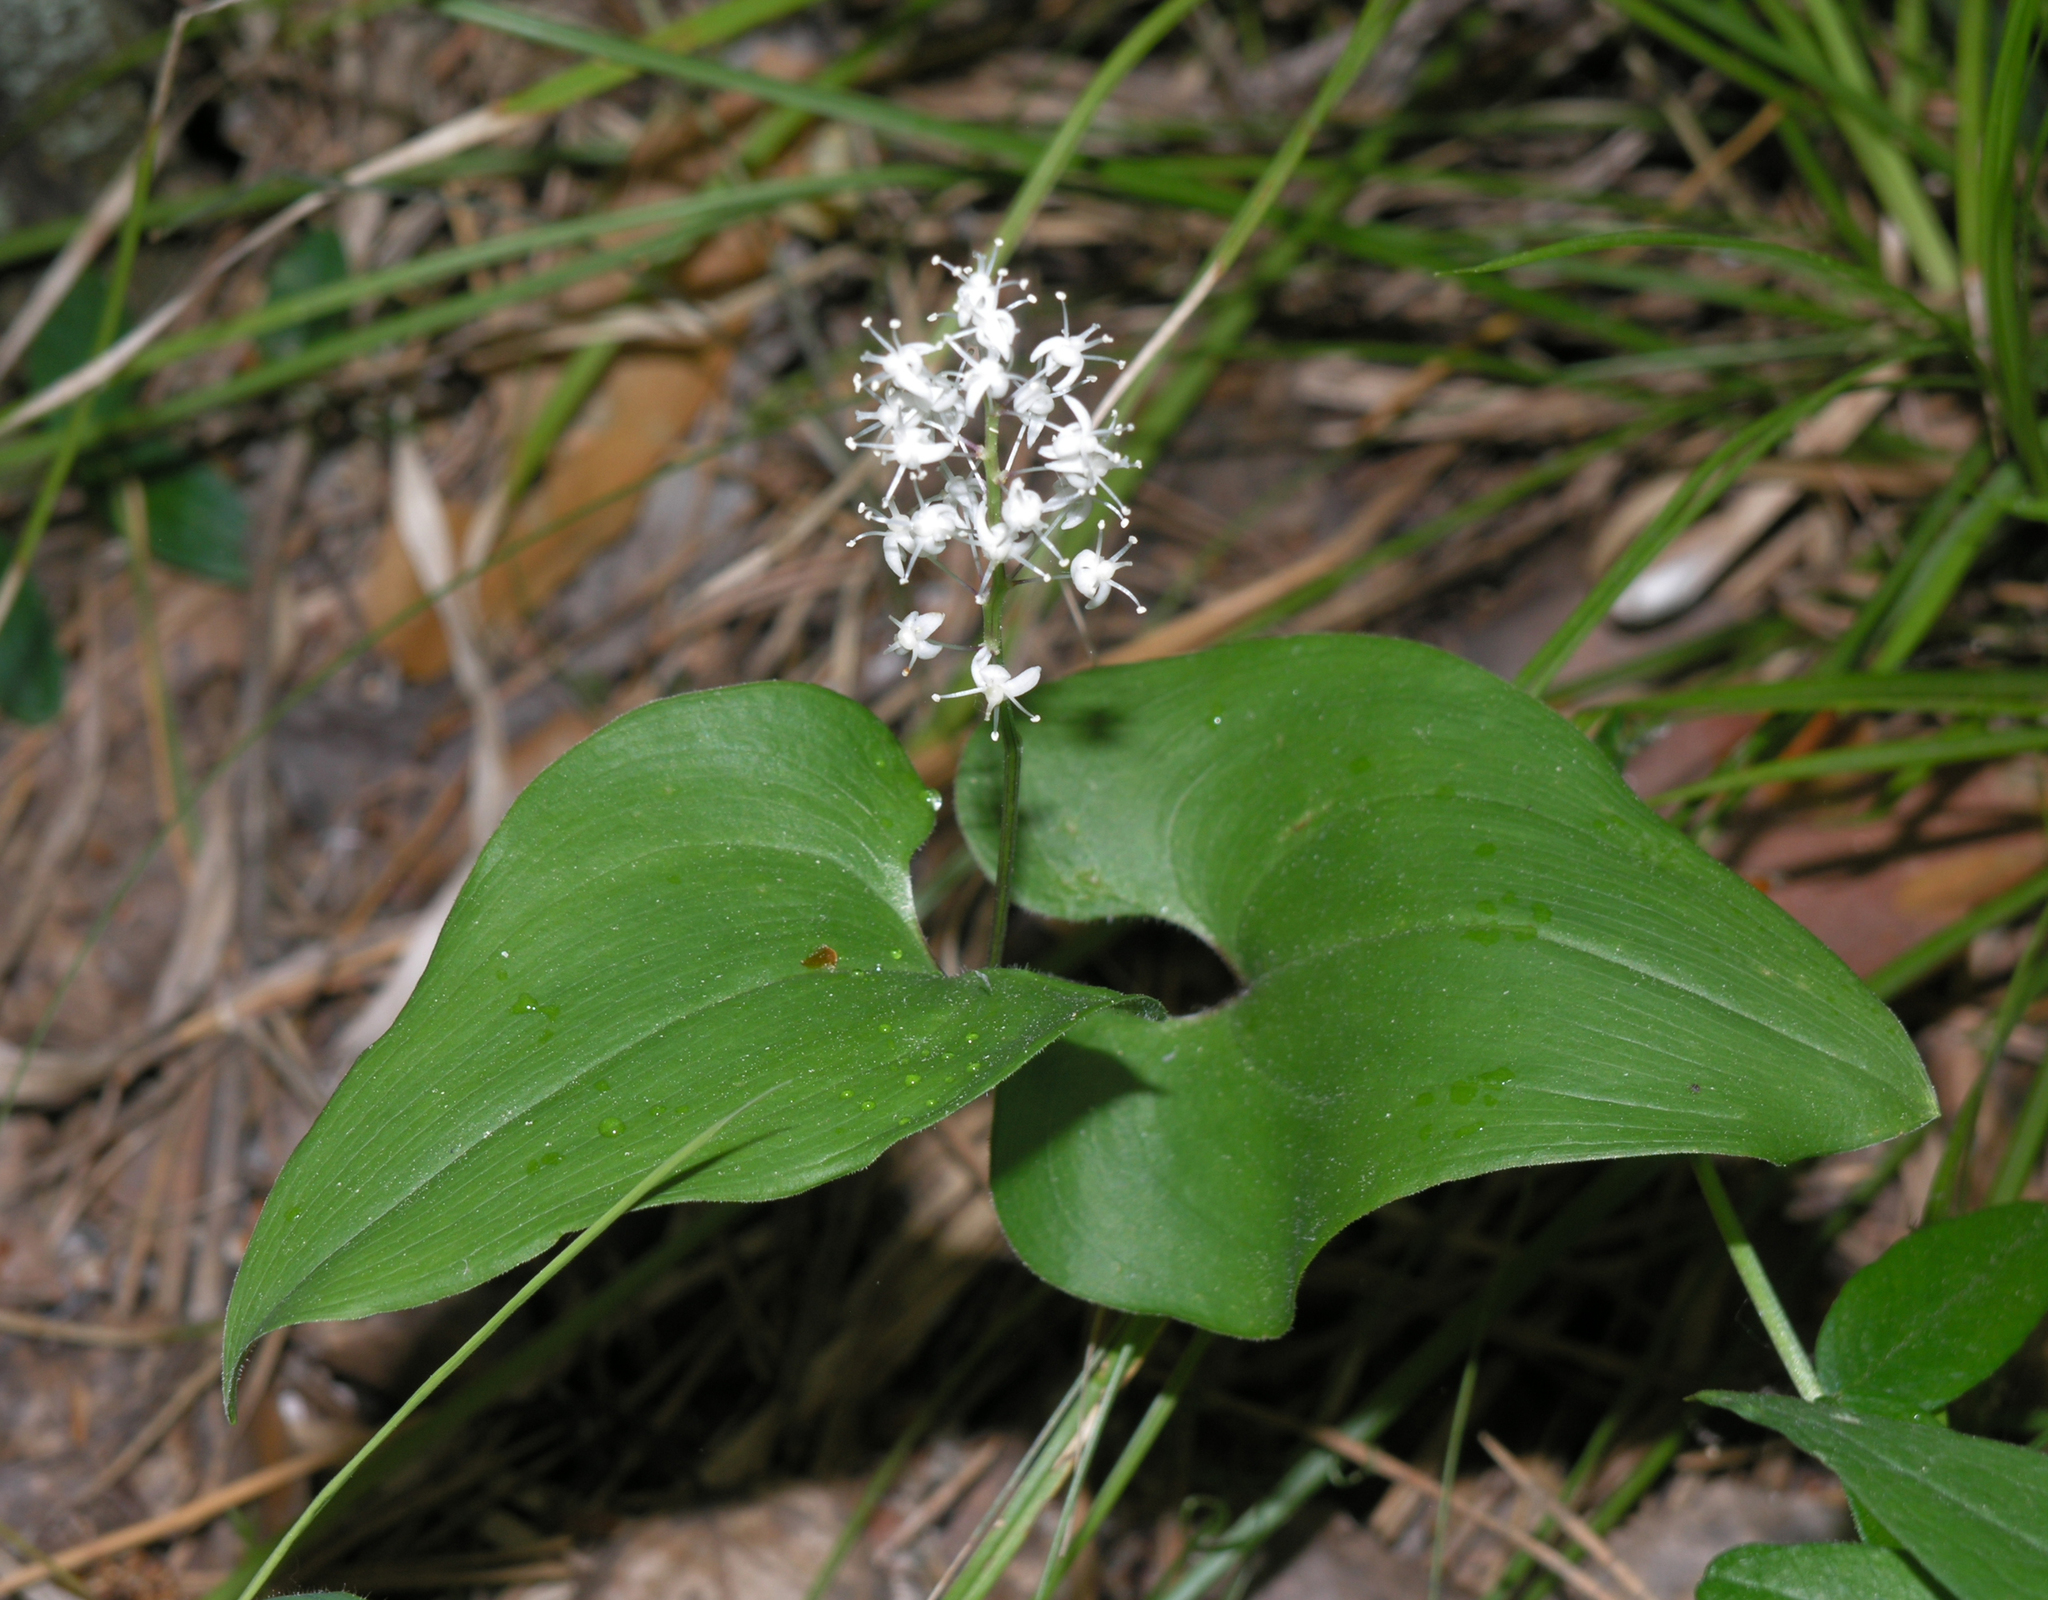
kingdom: Plantae
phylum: Tracheophyta
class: Liliopsida
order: Asparagales
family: Asparagaceae
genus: Maianthemum
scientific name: Maianthemum bifolium
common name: May lily
